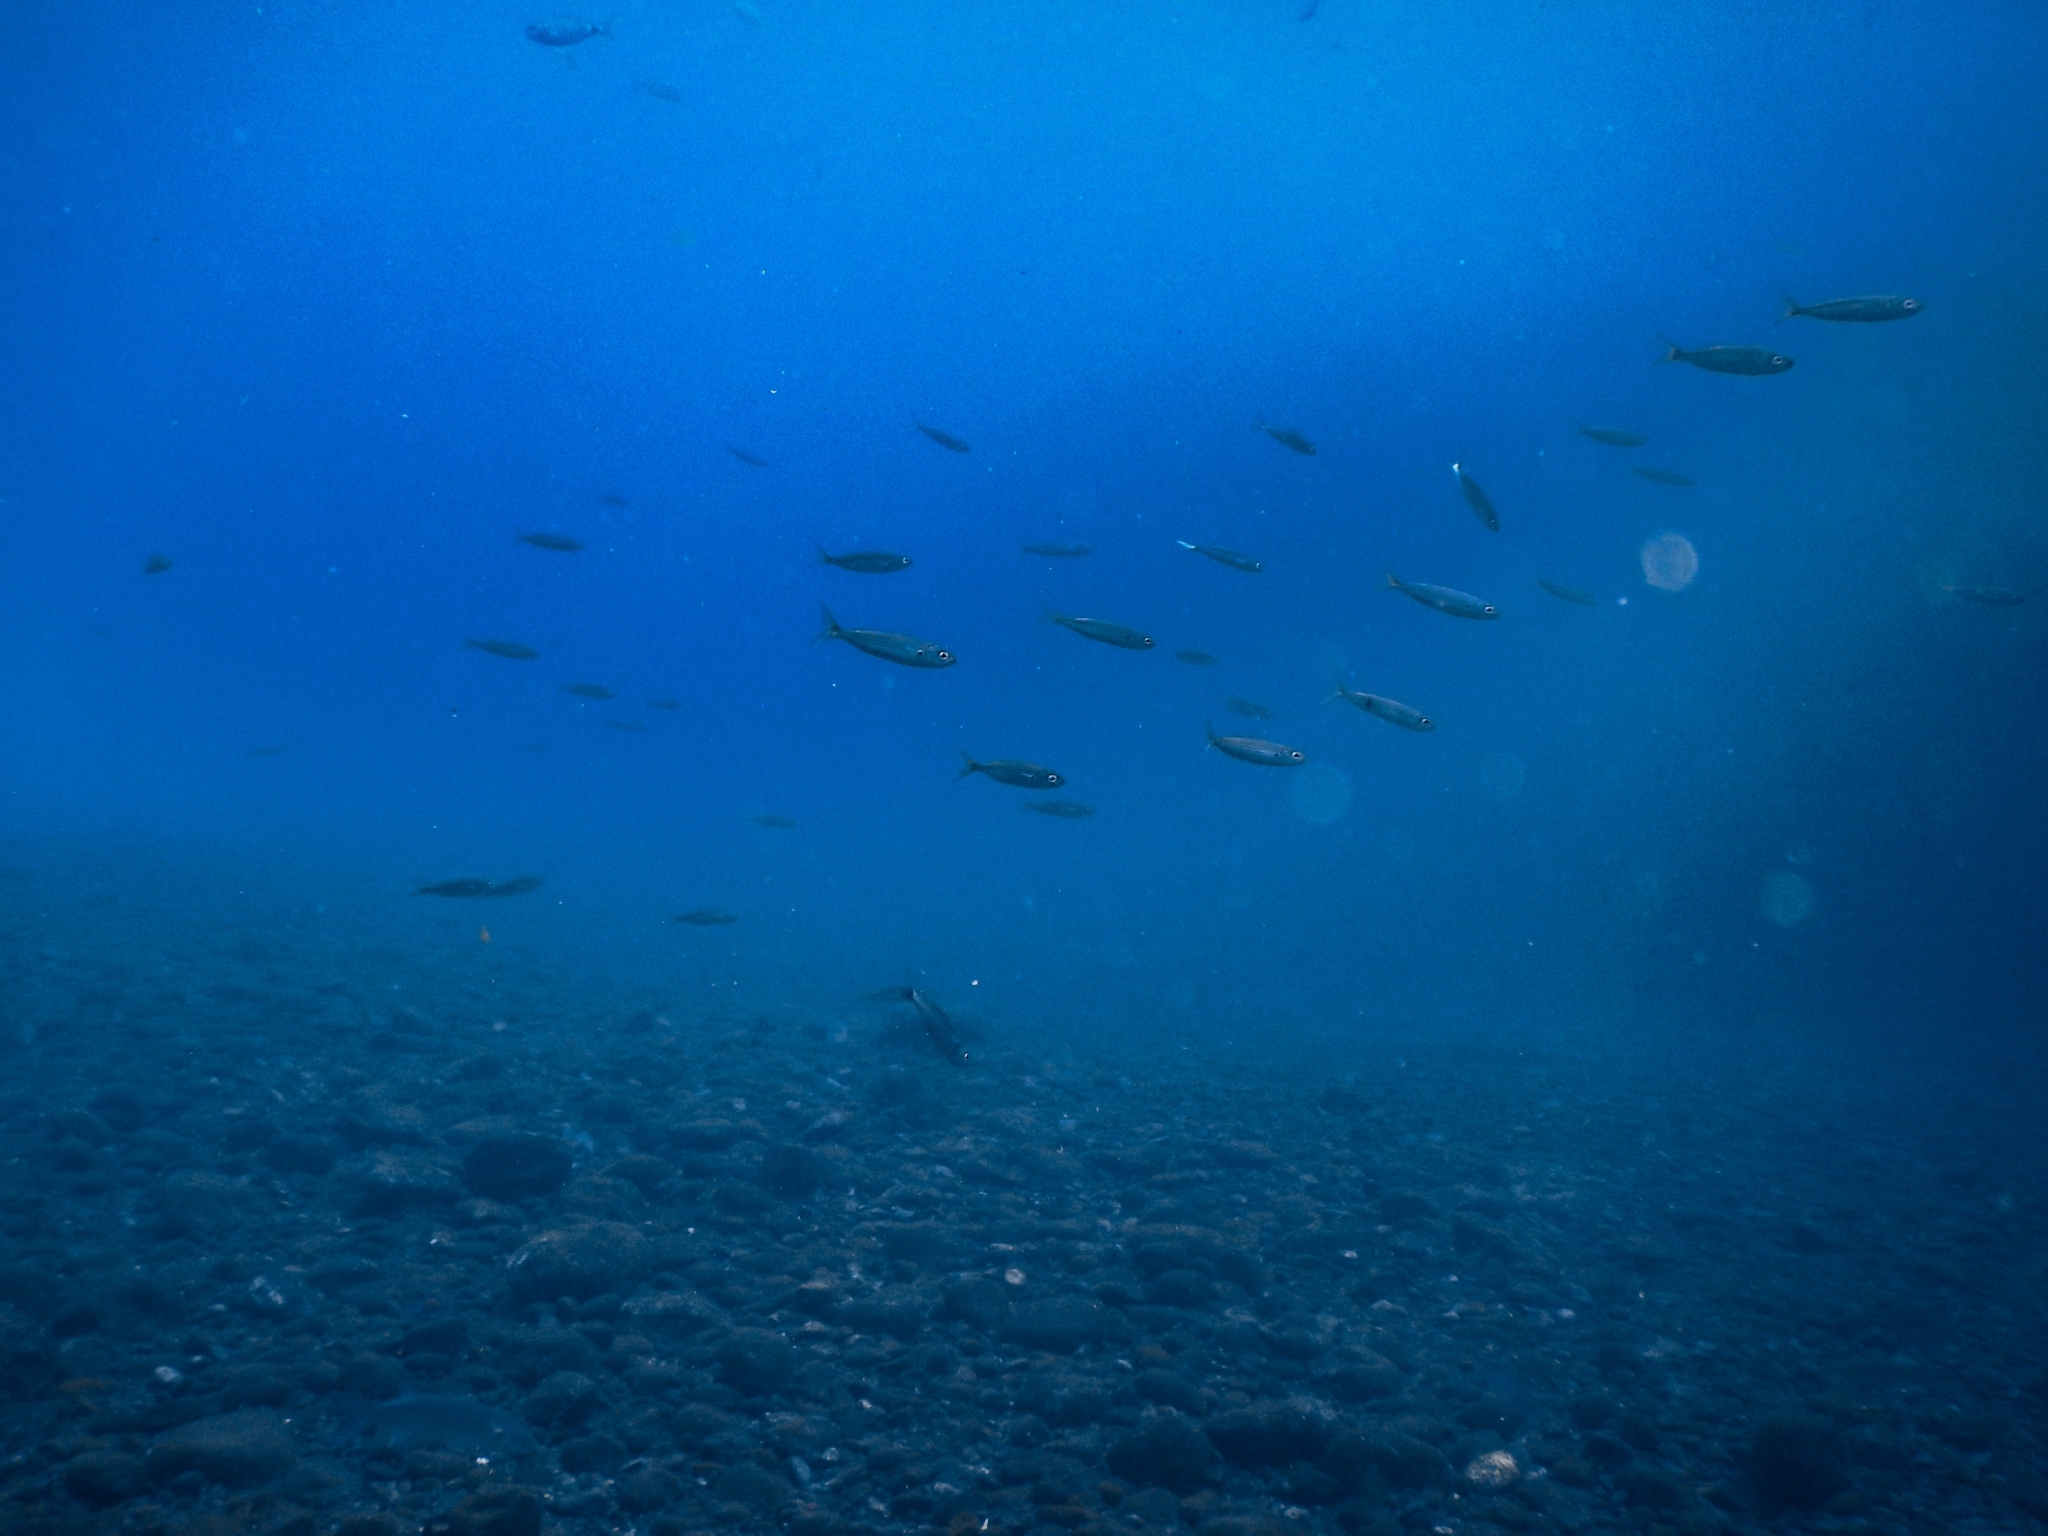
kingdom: Animalia
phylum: Chordata
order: Perciformes
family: Sparidae
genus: Boops
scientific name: Boops boops
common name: Bogue
